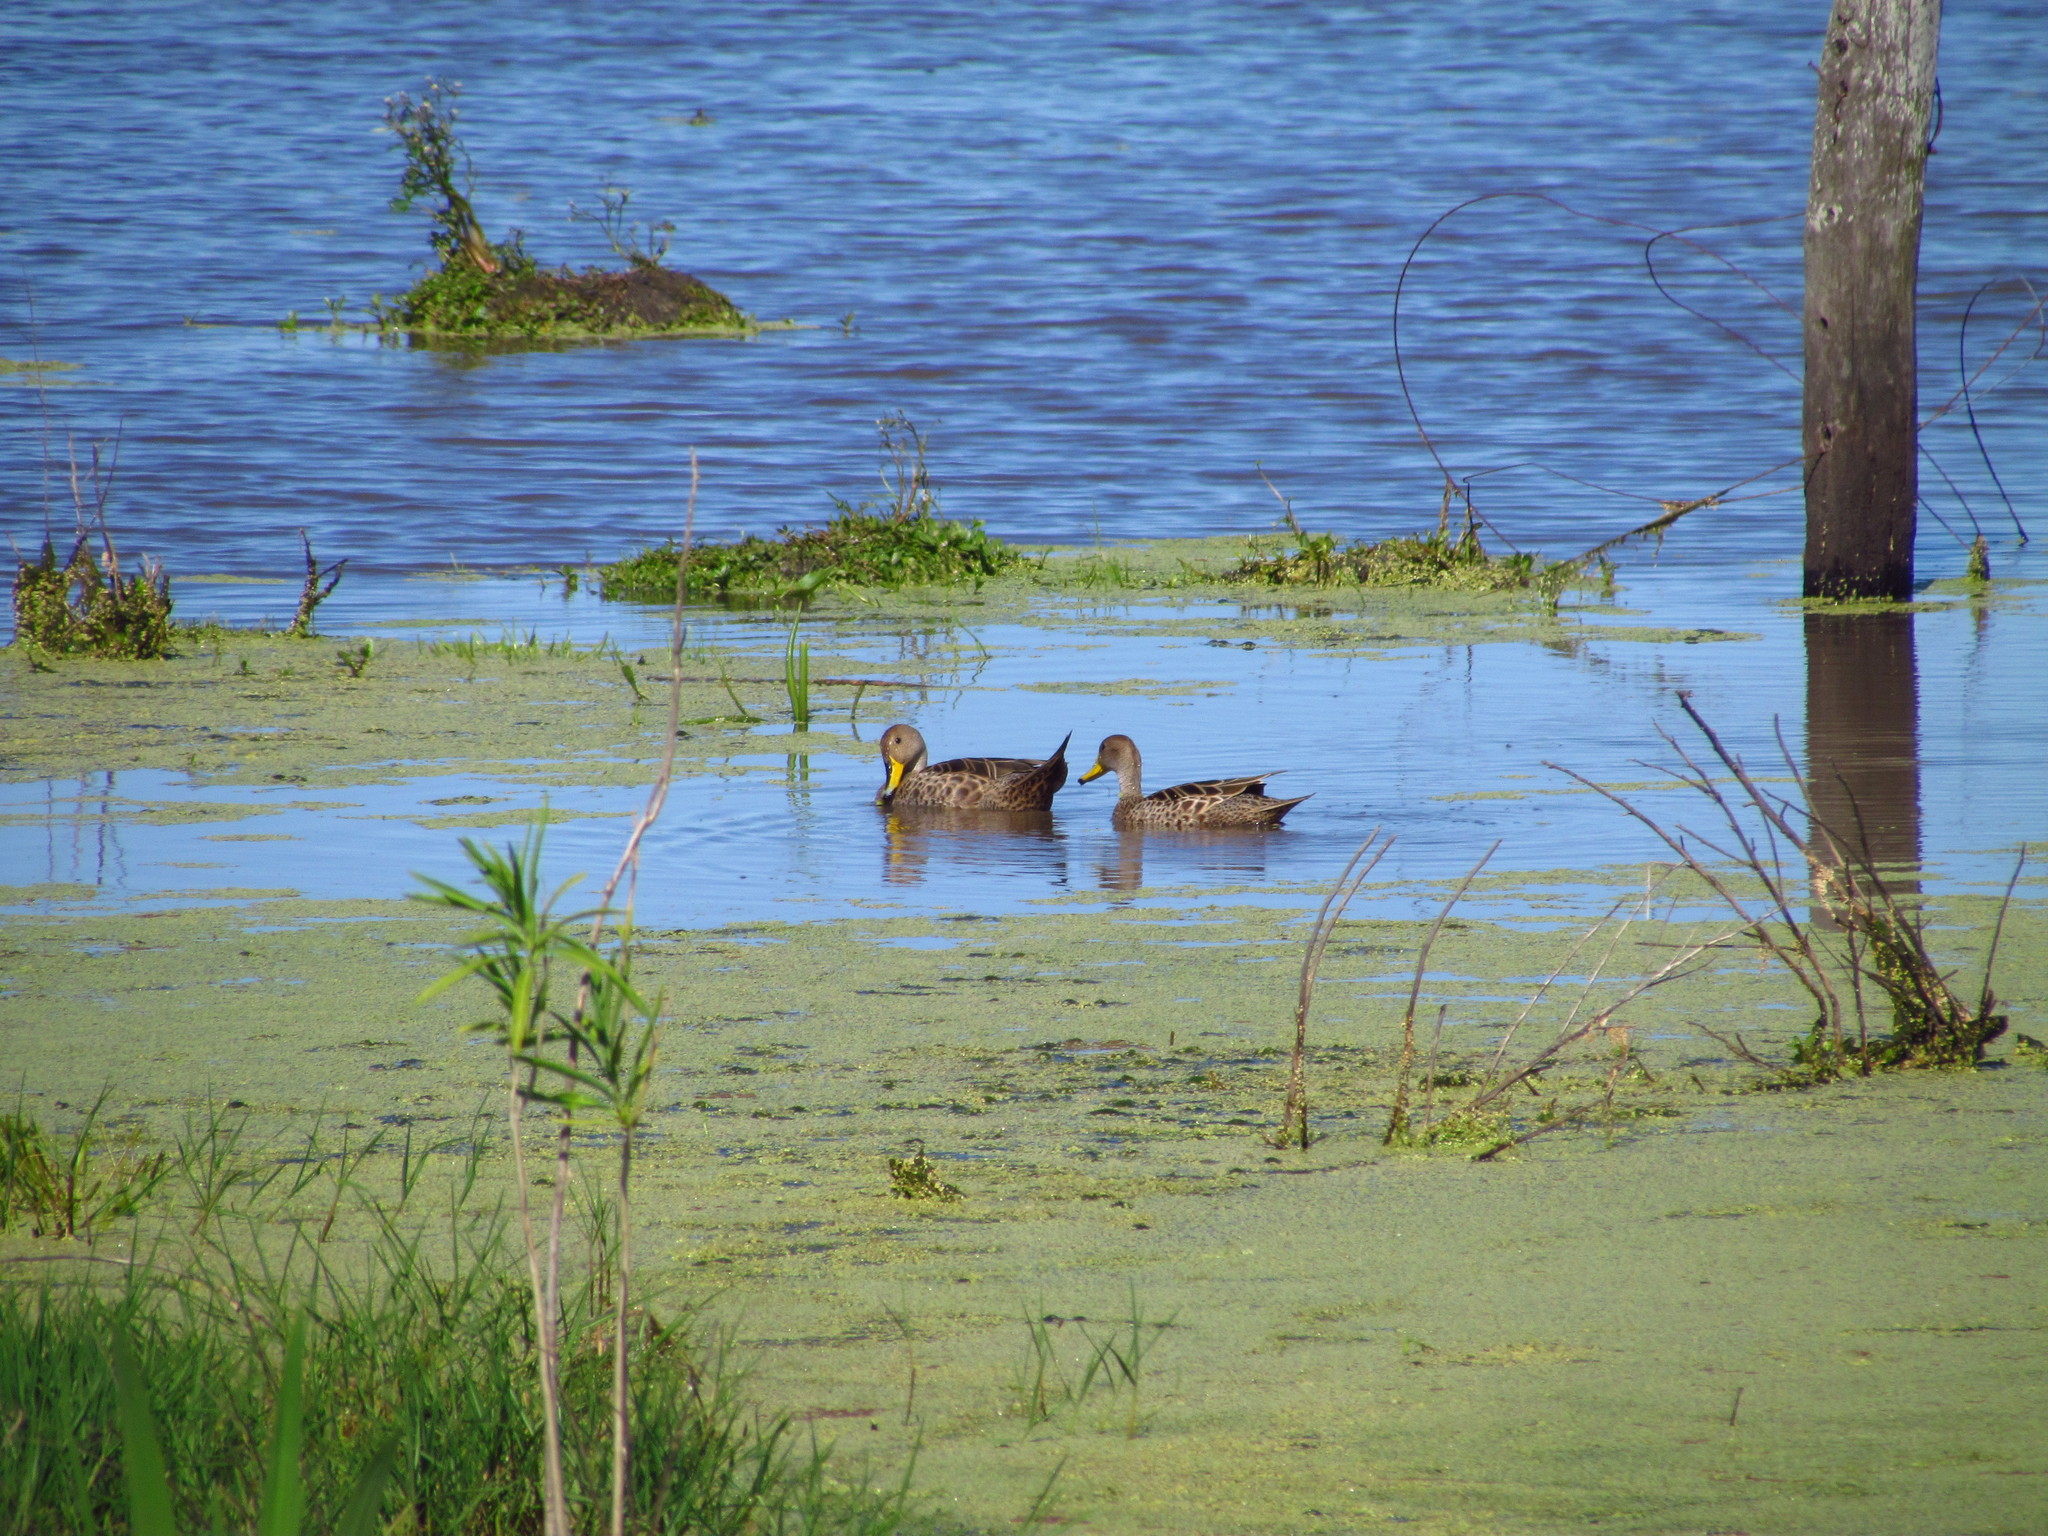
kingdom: Animalia
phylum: Chordata
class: Aves
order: Anseriformes
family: Anatidae
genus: Anas
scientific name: Anas georgica
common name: Yellow-billed pintail
